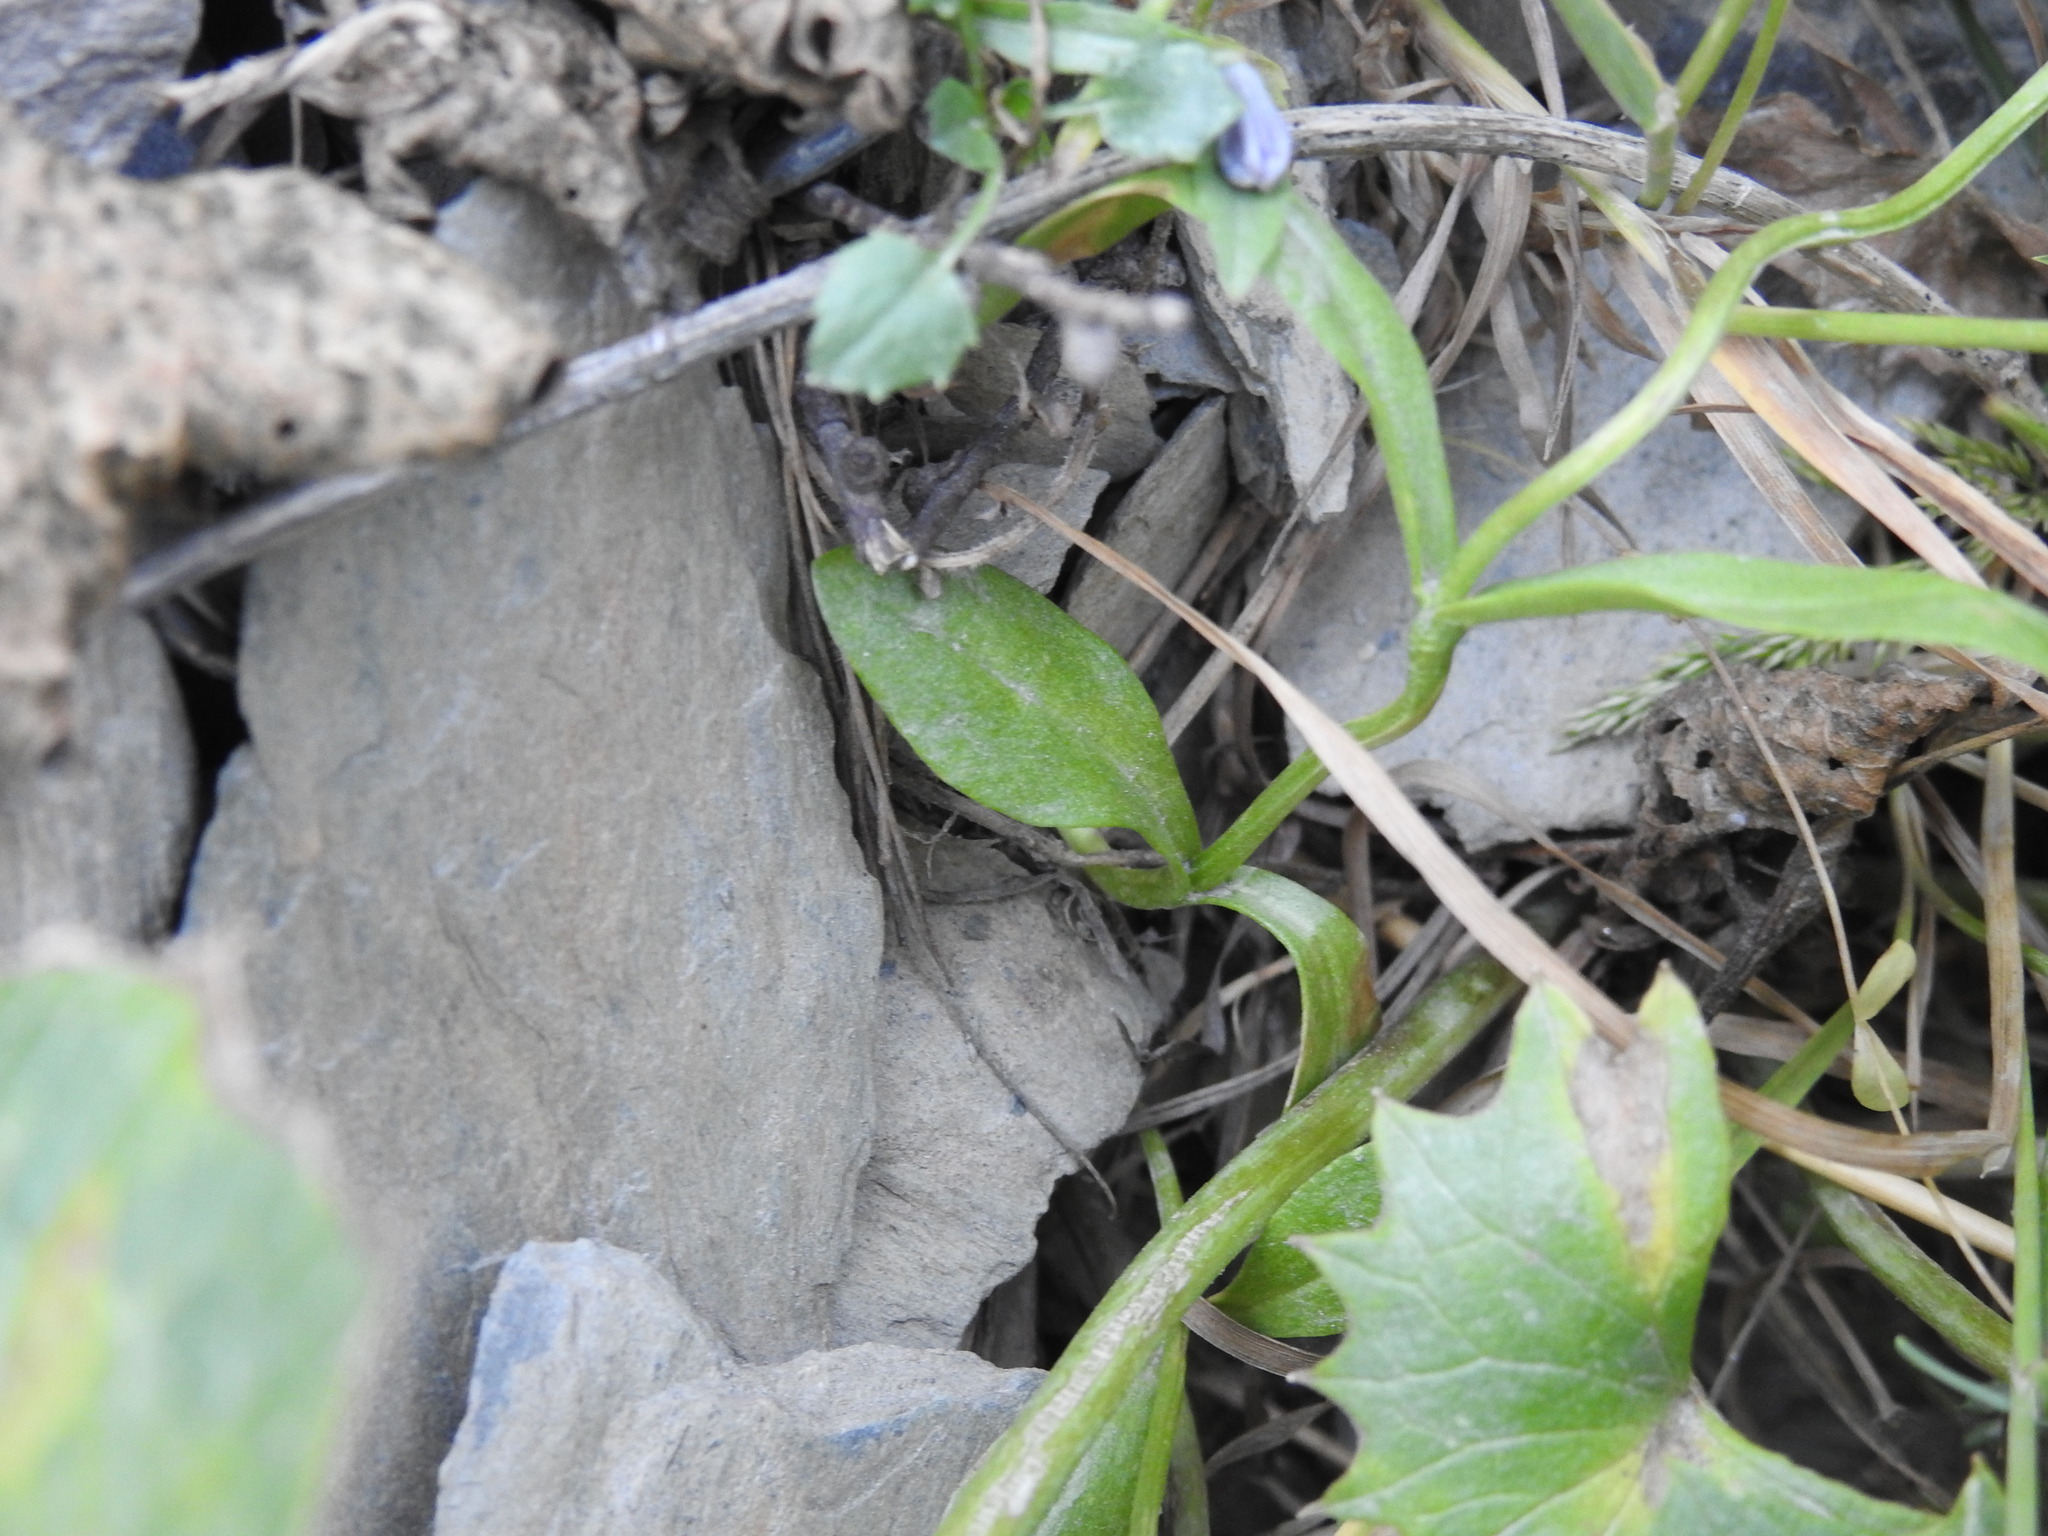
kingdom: Plantae
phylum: Tracheophyta
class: Magnoliopsida
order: Gentianales
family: Gentianaceae
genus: Gentianopsis
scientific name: Gentianopsis ciliata
